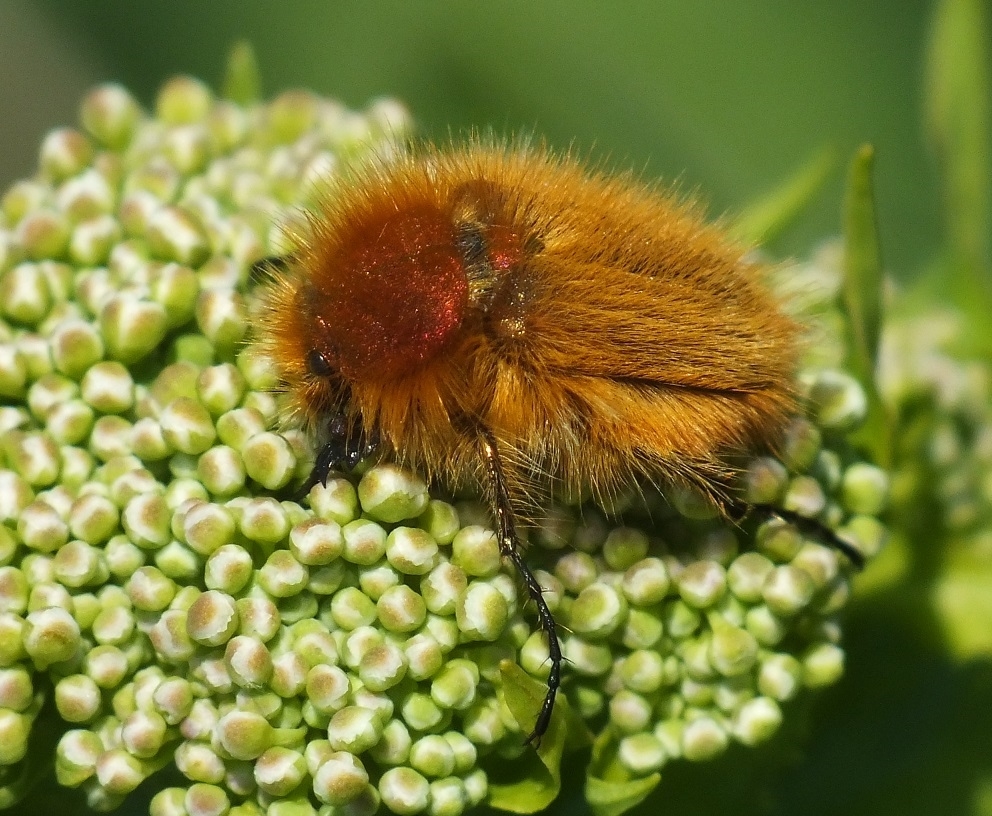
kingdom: Animalia
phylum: Arthropoda
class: Insecta
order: Coleoptera
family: Glaphyridae
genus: Pygopleurus
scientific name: Pygopleurus vulpes
